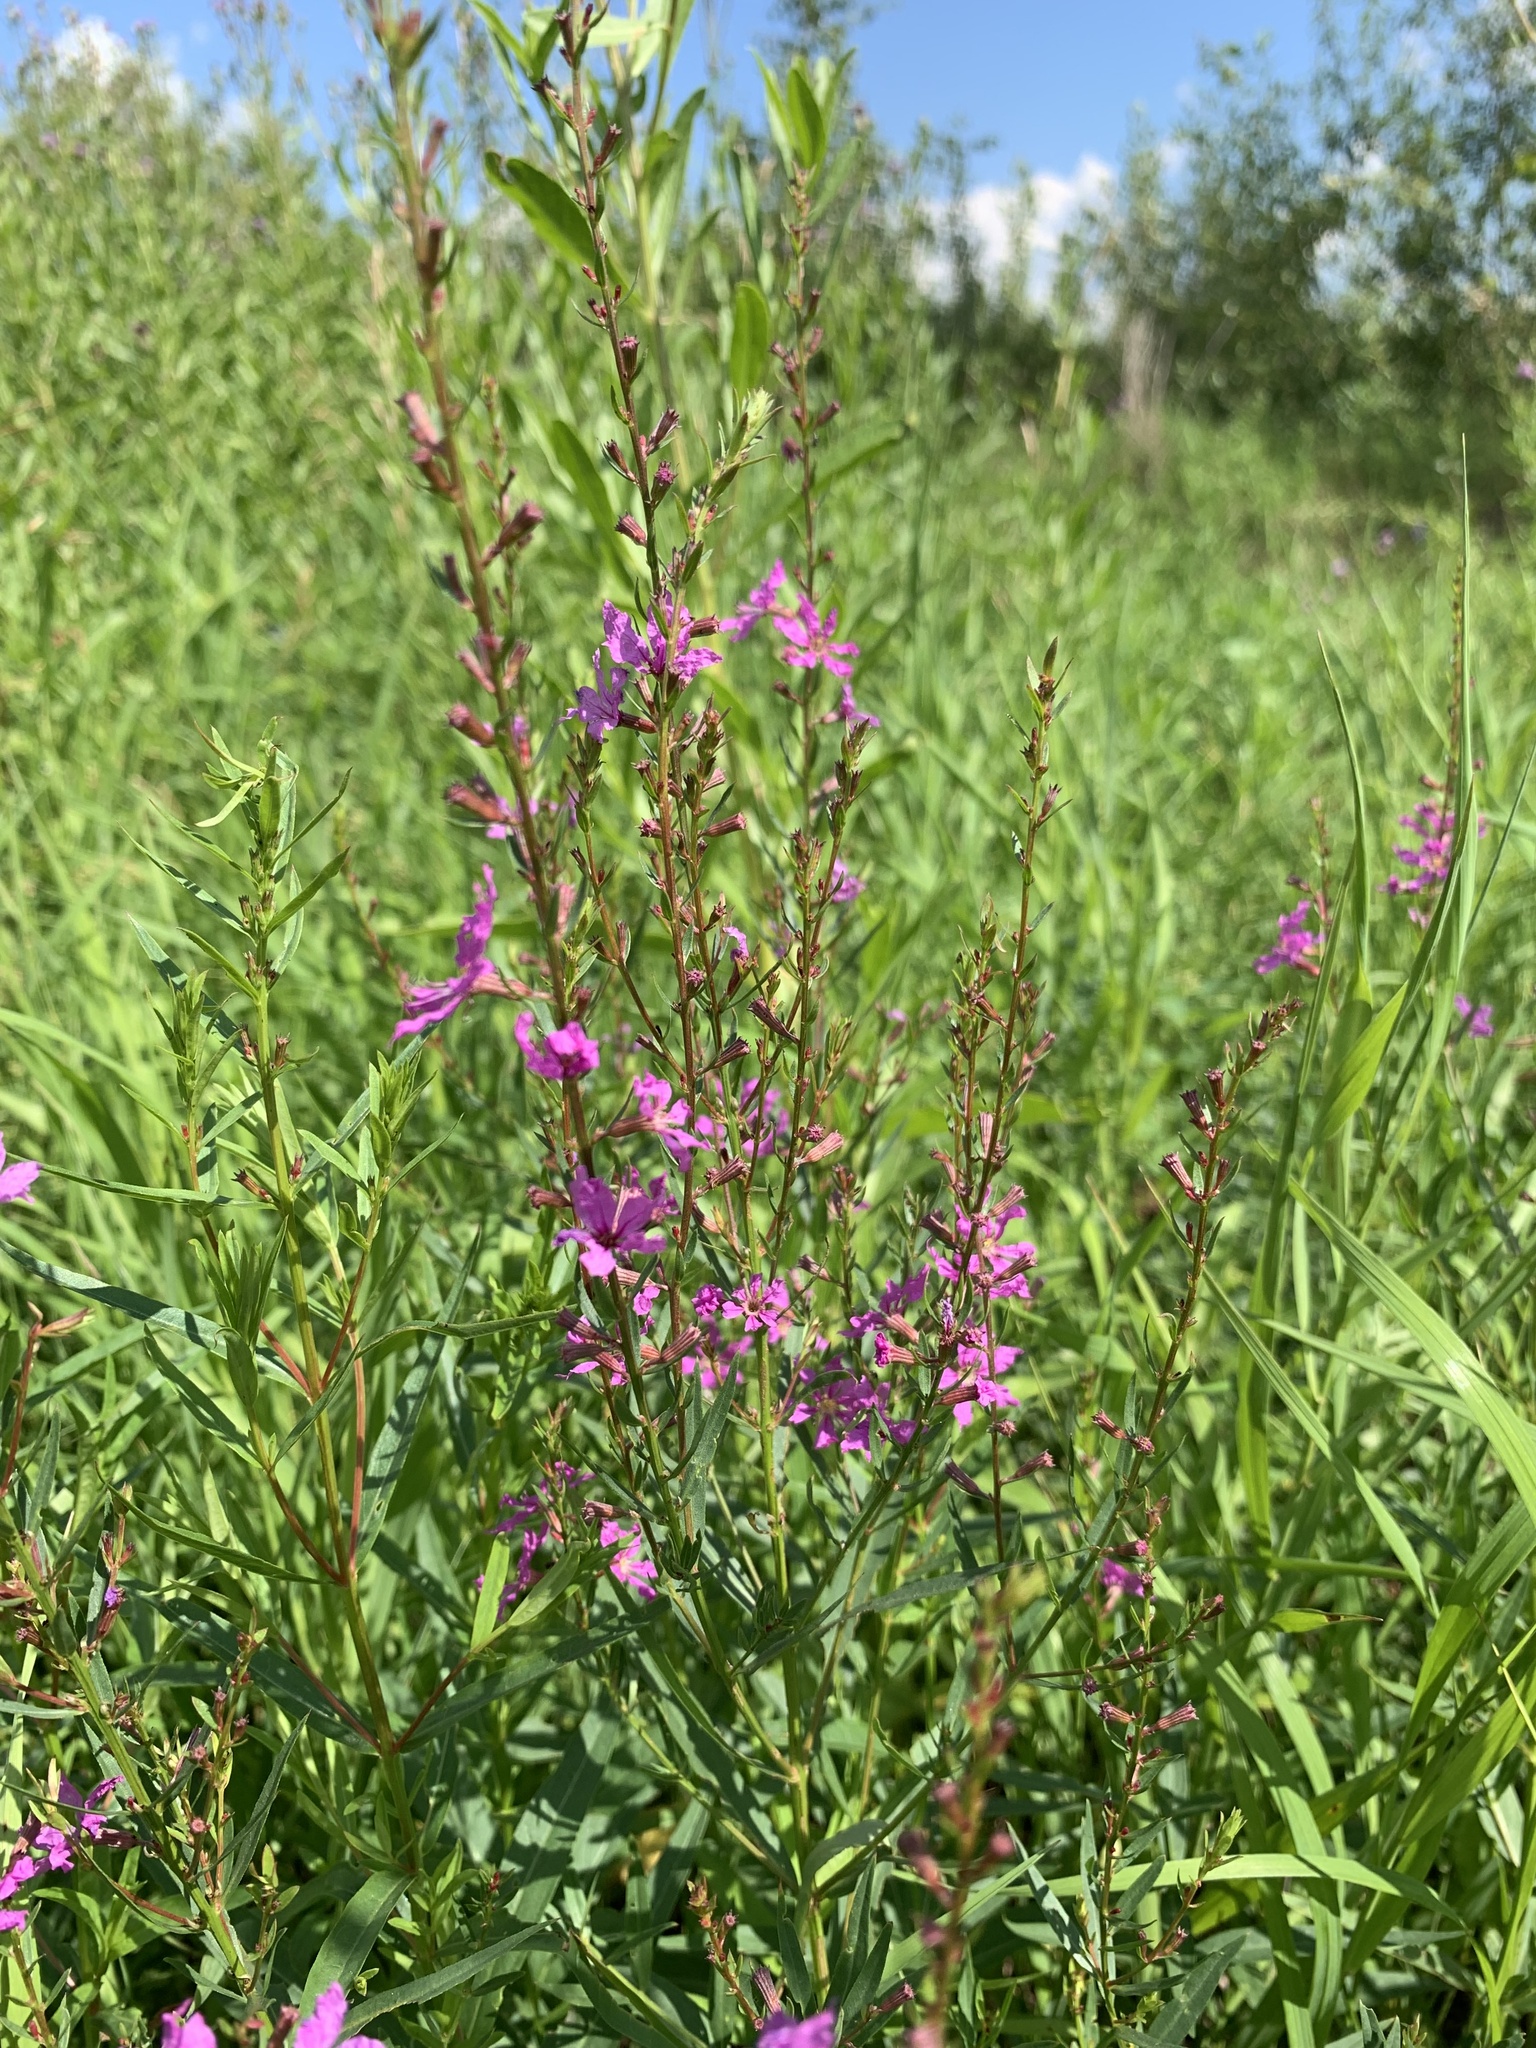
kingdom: Plantae
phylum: Tracheophyta
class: Magnoliopsida
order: Myrtales
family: Lythraceae
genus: Lythrum
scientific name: Lythrum virgatum
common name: European wand loosestrife
